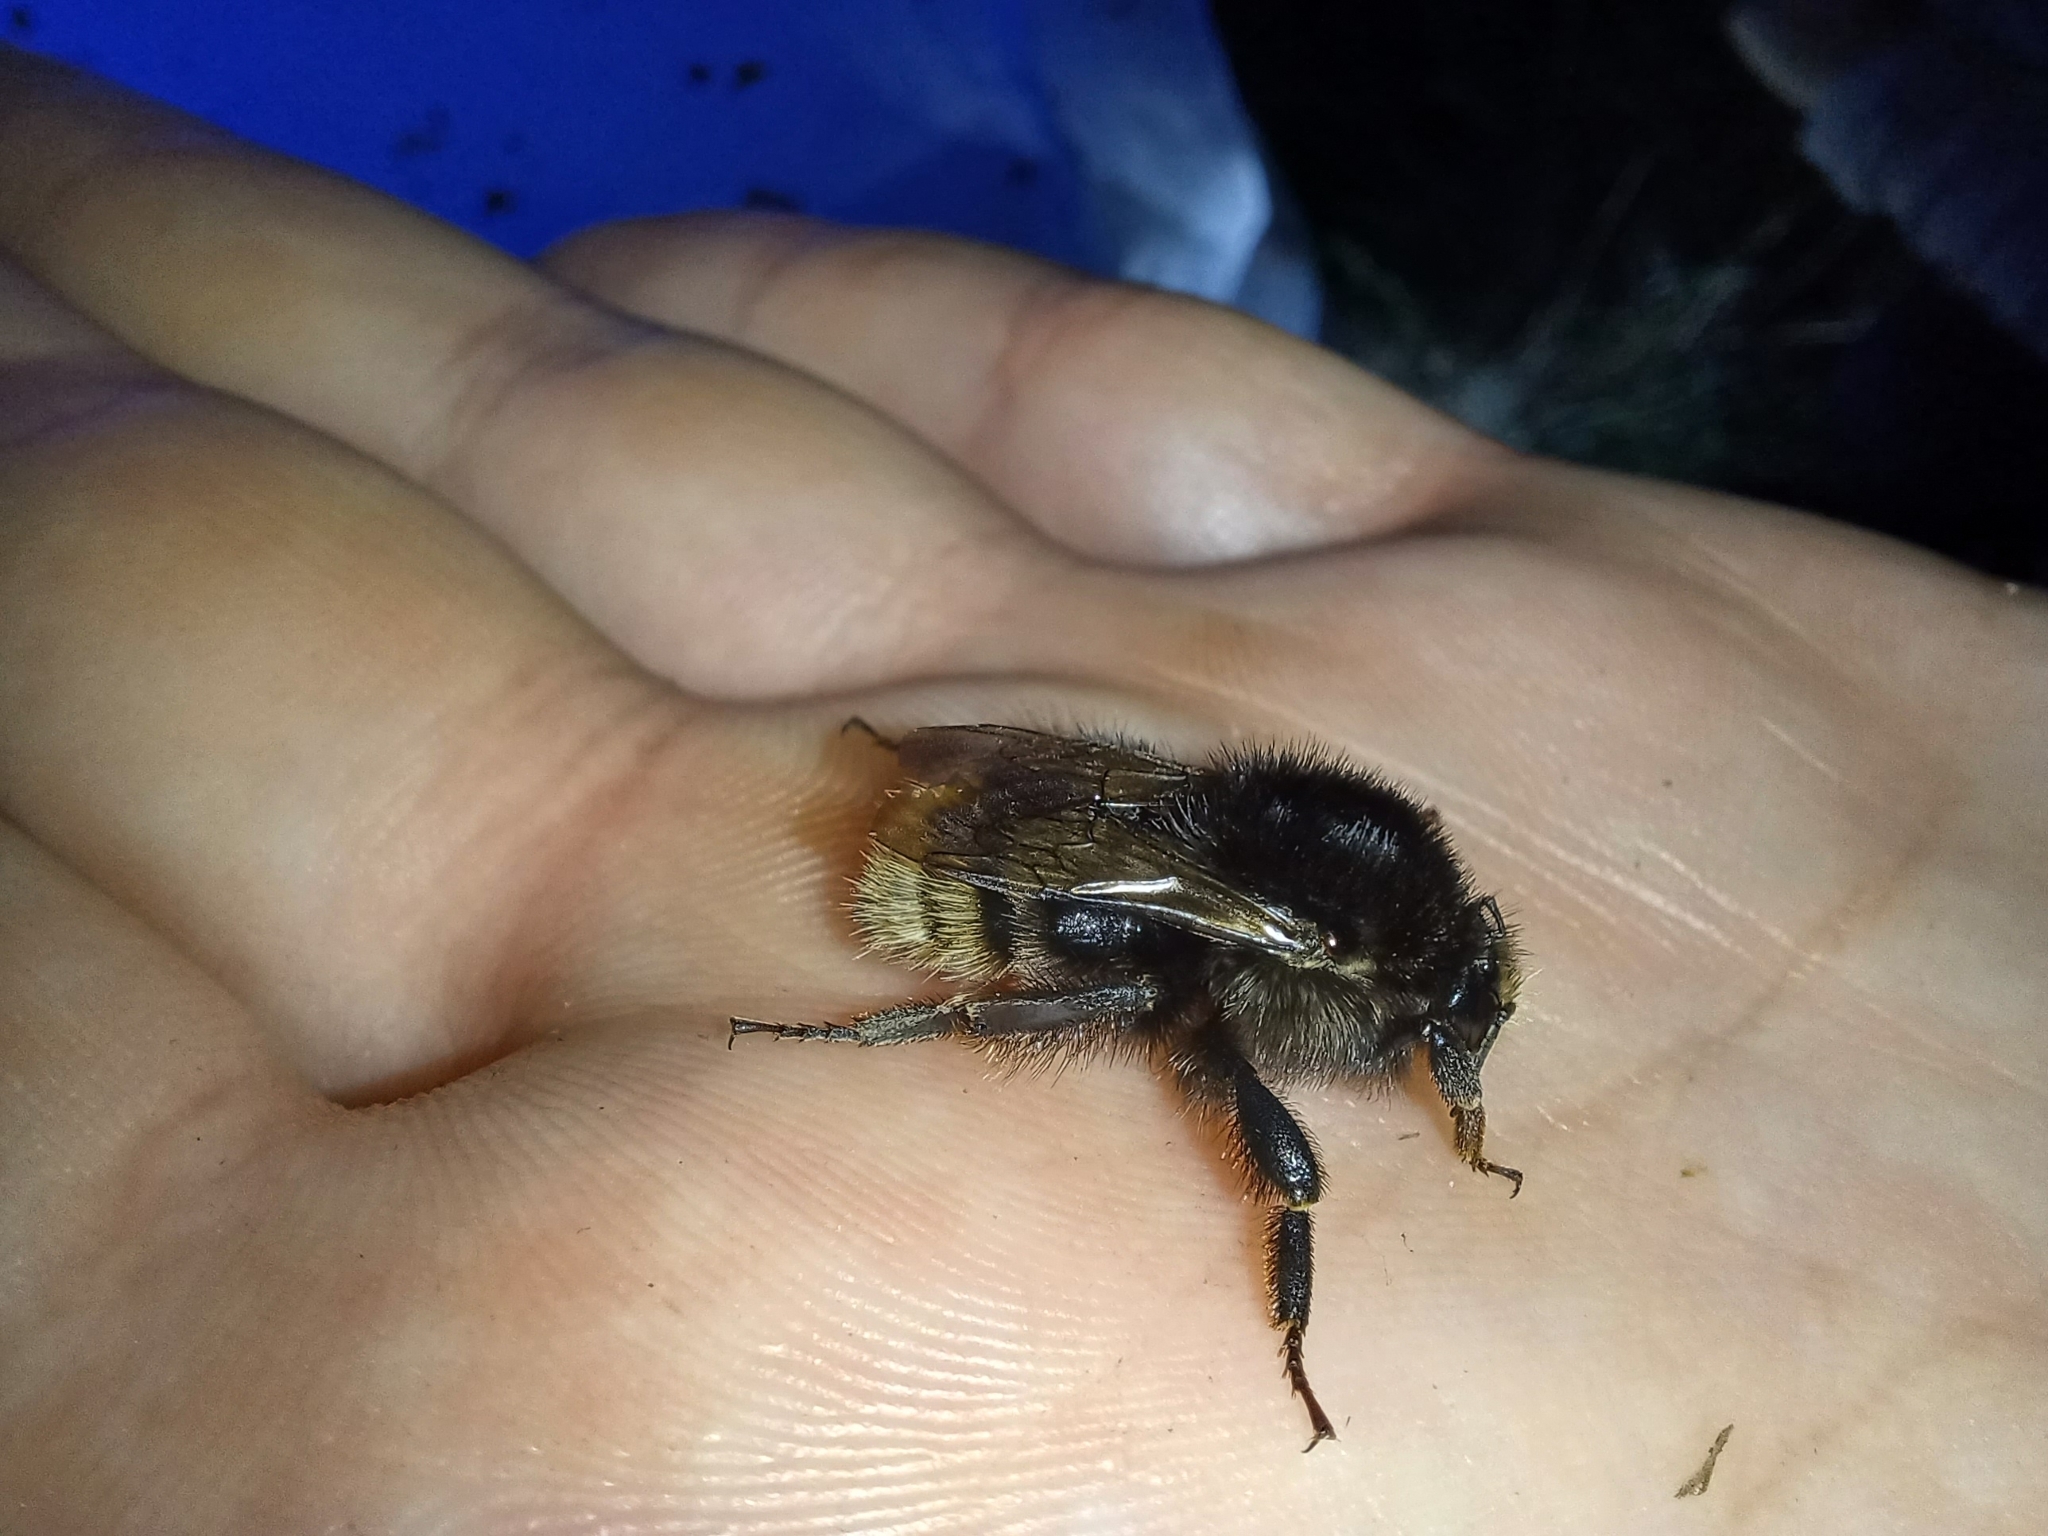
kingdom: Animalia
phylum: Arthropoda
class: Insecta
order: Hymenoptera
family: Apidae
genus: Bombus
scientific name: Bombus humilis
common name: Brown-banded carder-bee
